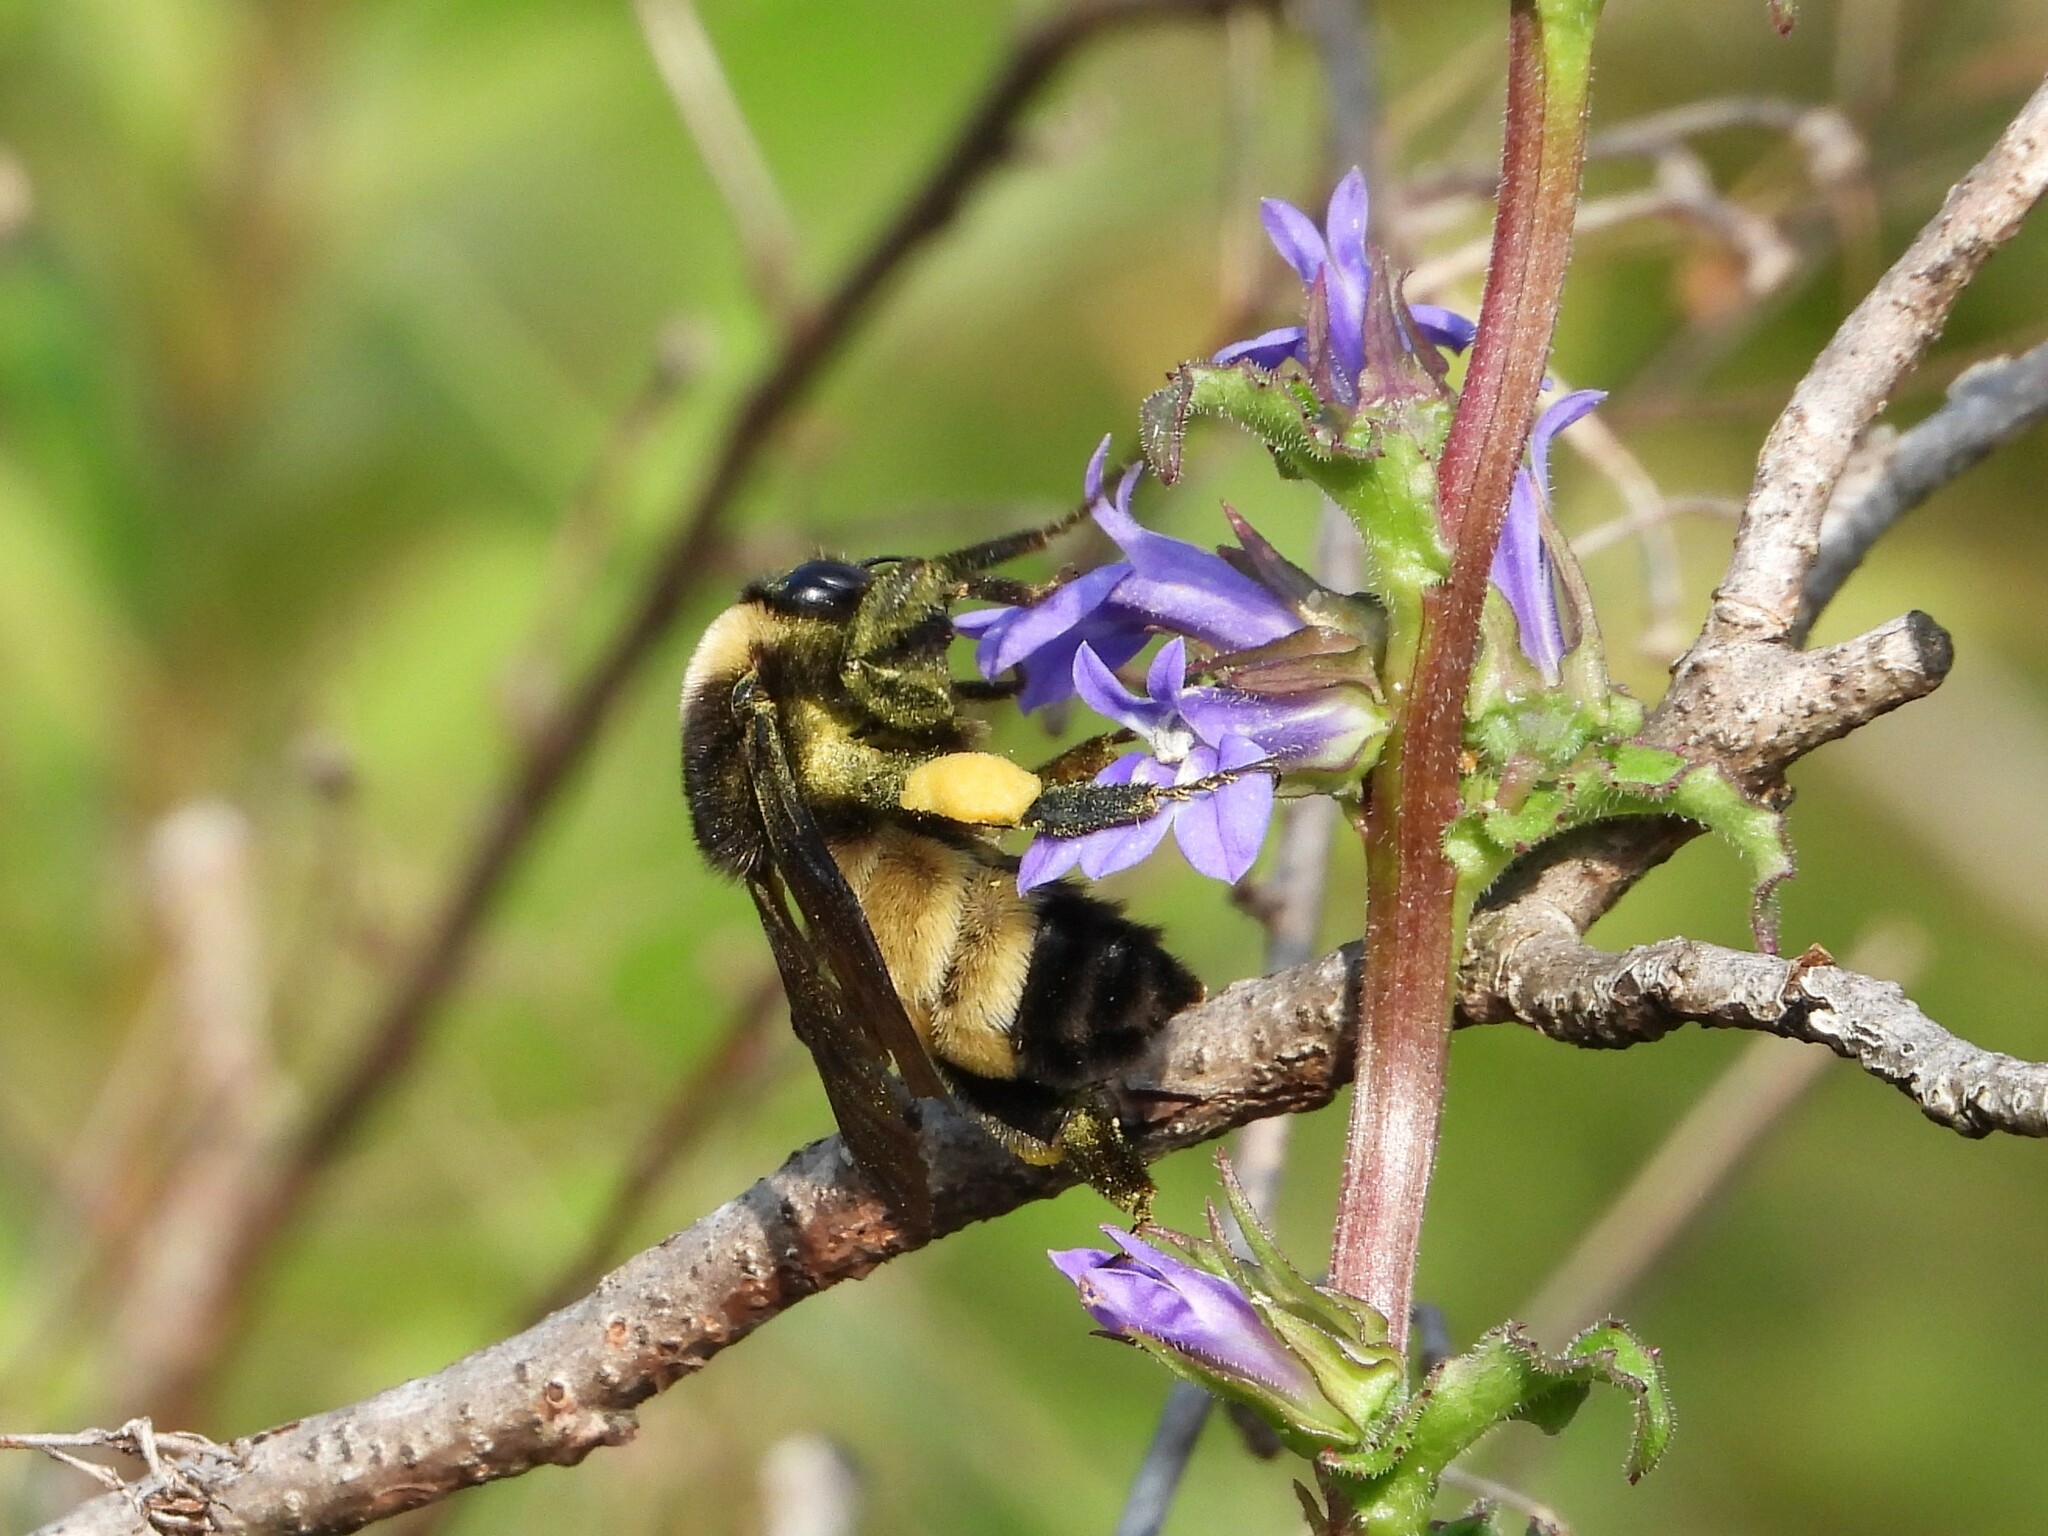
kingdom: Animalia
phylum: Arthropoda
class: Insecta
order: Hymenoptera
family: Apidae
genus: Bombus
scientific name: Bombus pensylvanicus
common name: Bumble bee
